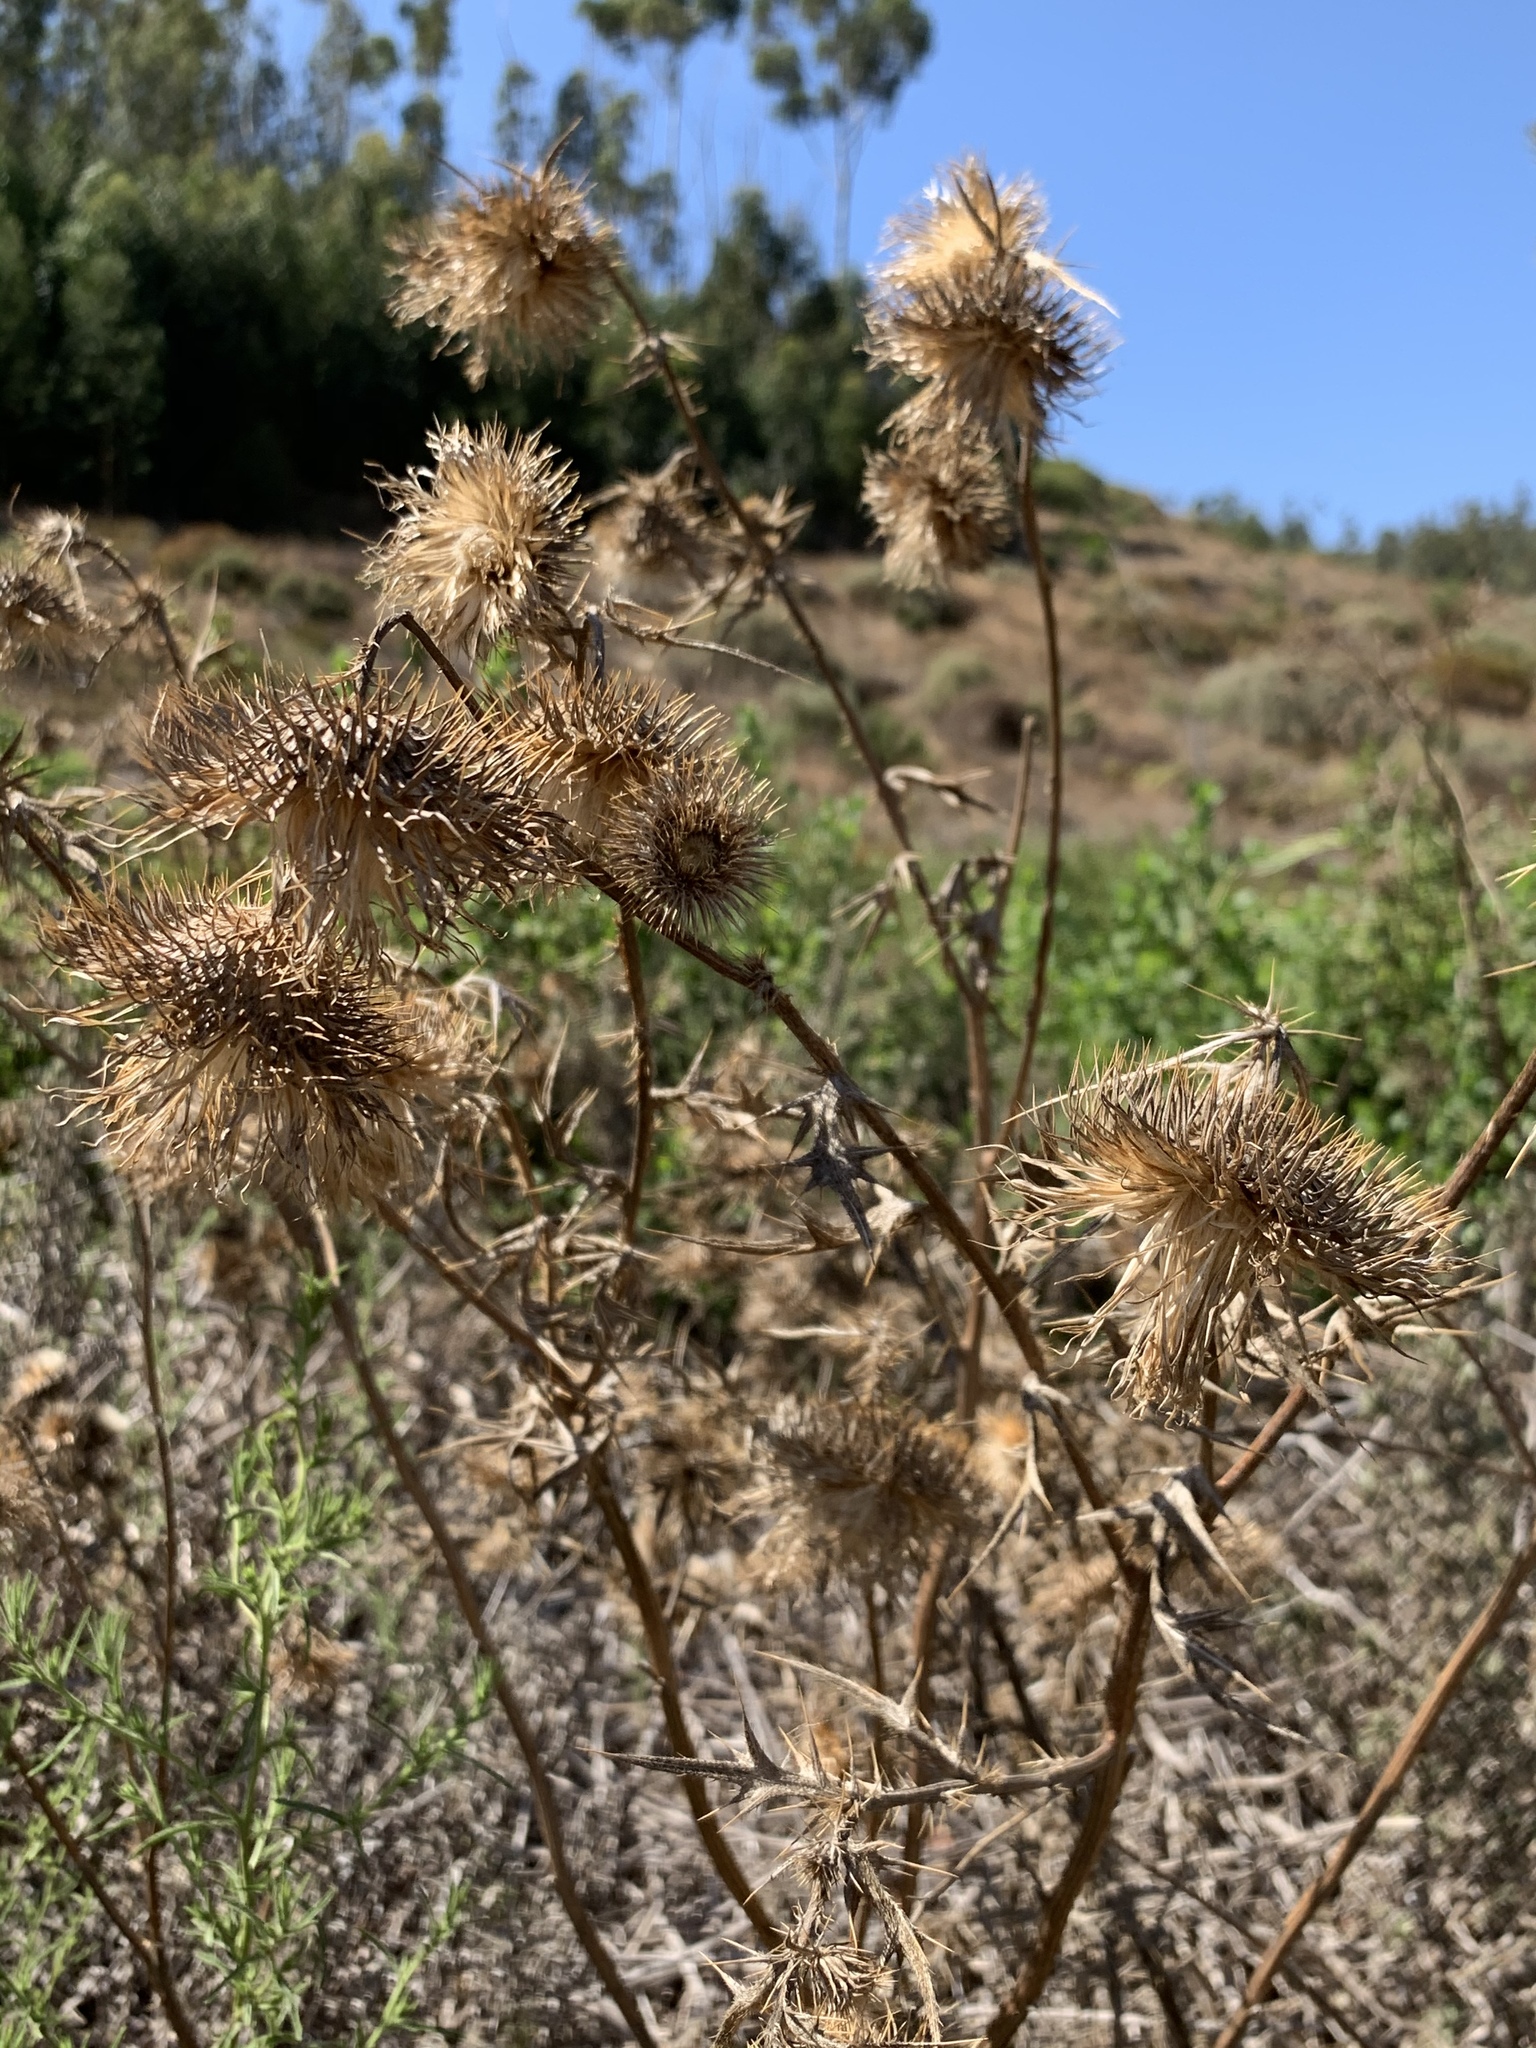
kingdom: Plantae
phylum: Tracheophyta
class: Magnoliopsida
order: Asterales
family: Asteraceae
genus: Cirsium
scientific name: Cirsium vulgare
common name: Bull thistle
